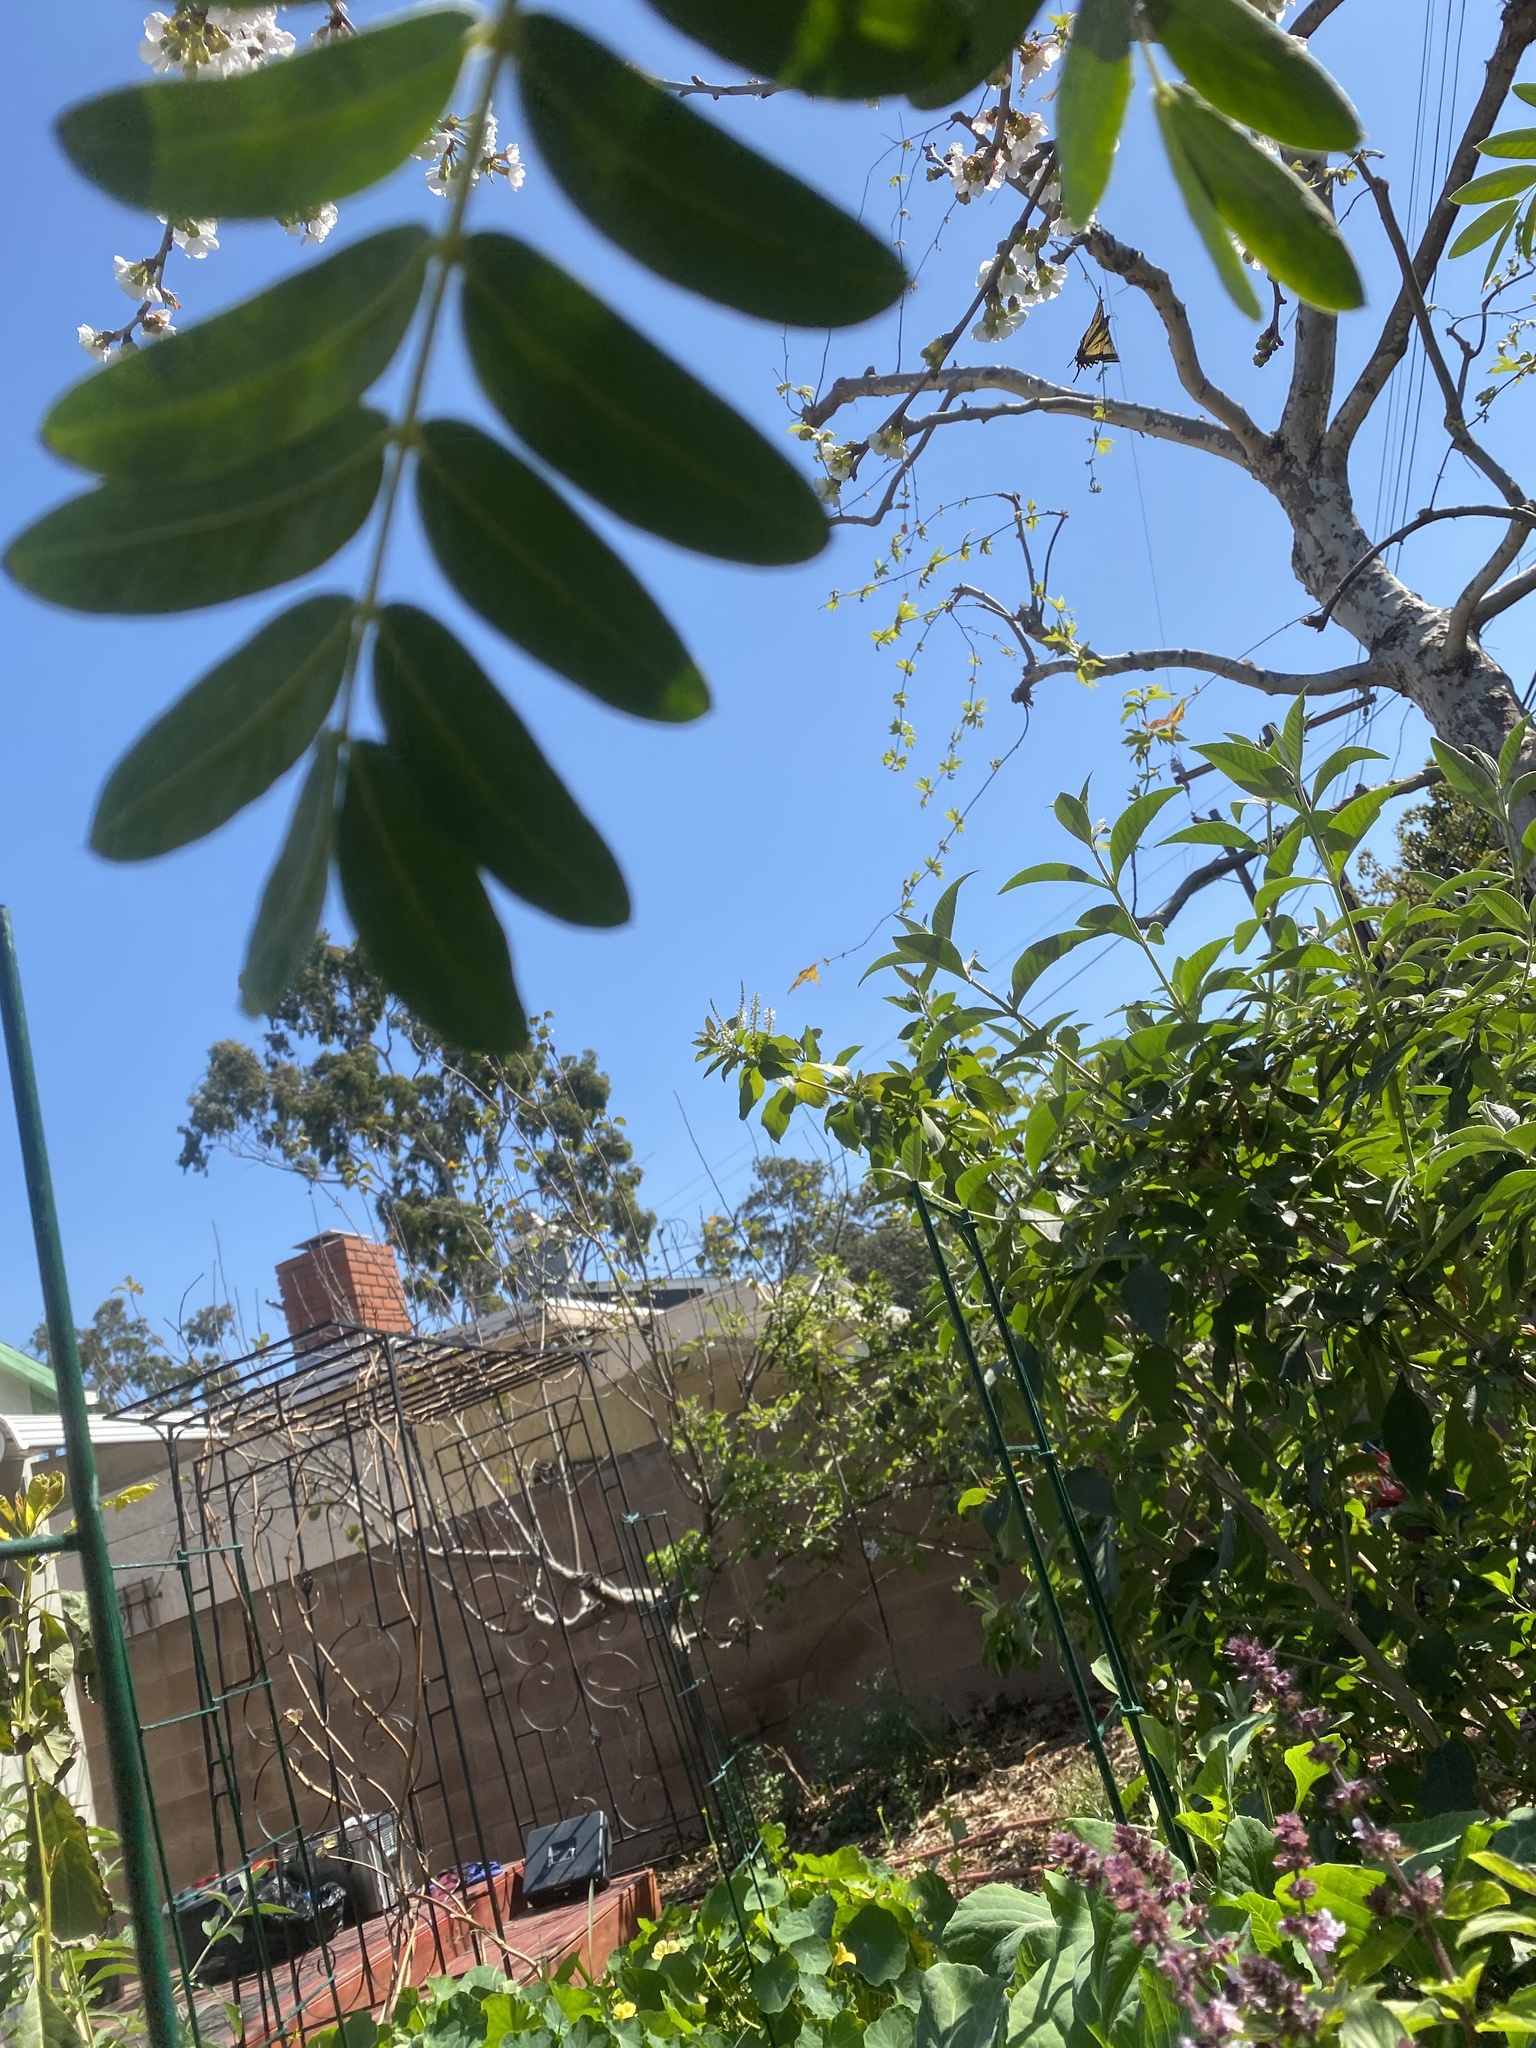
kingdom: Animalia
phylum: Arthropoda
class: Insecta
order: Lepidoptera
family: Papilionidae
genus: Papilio
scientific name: Papilio rutulus
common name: Western tiger swallowtail
